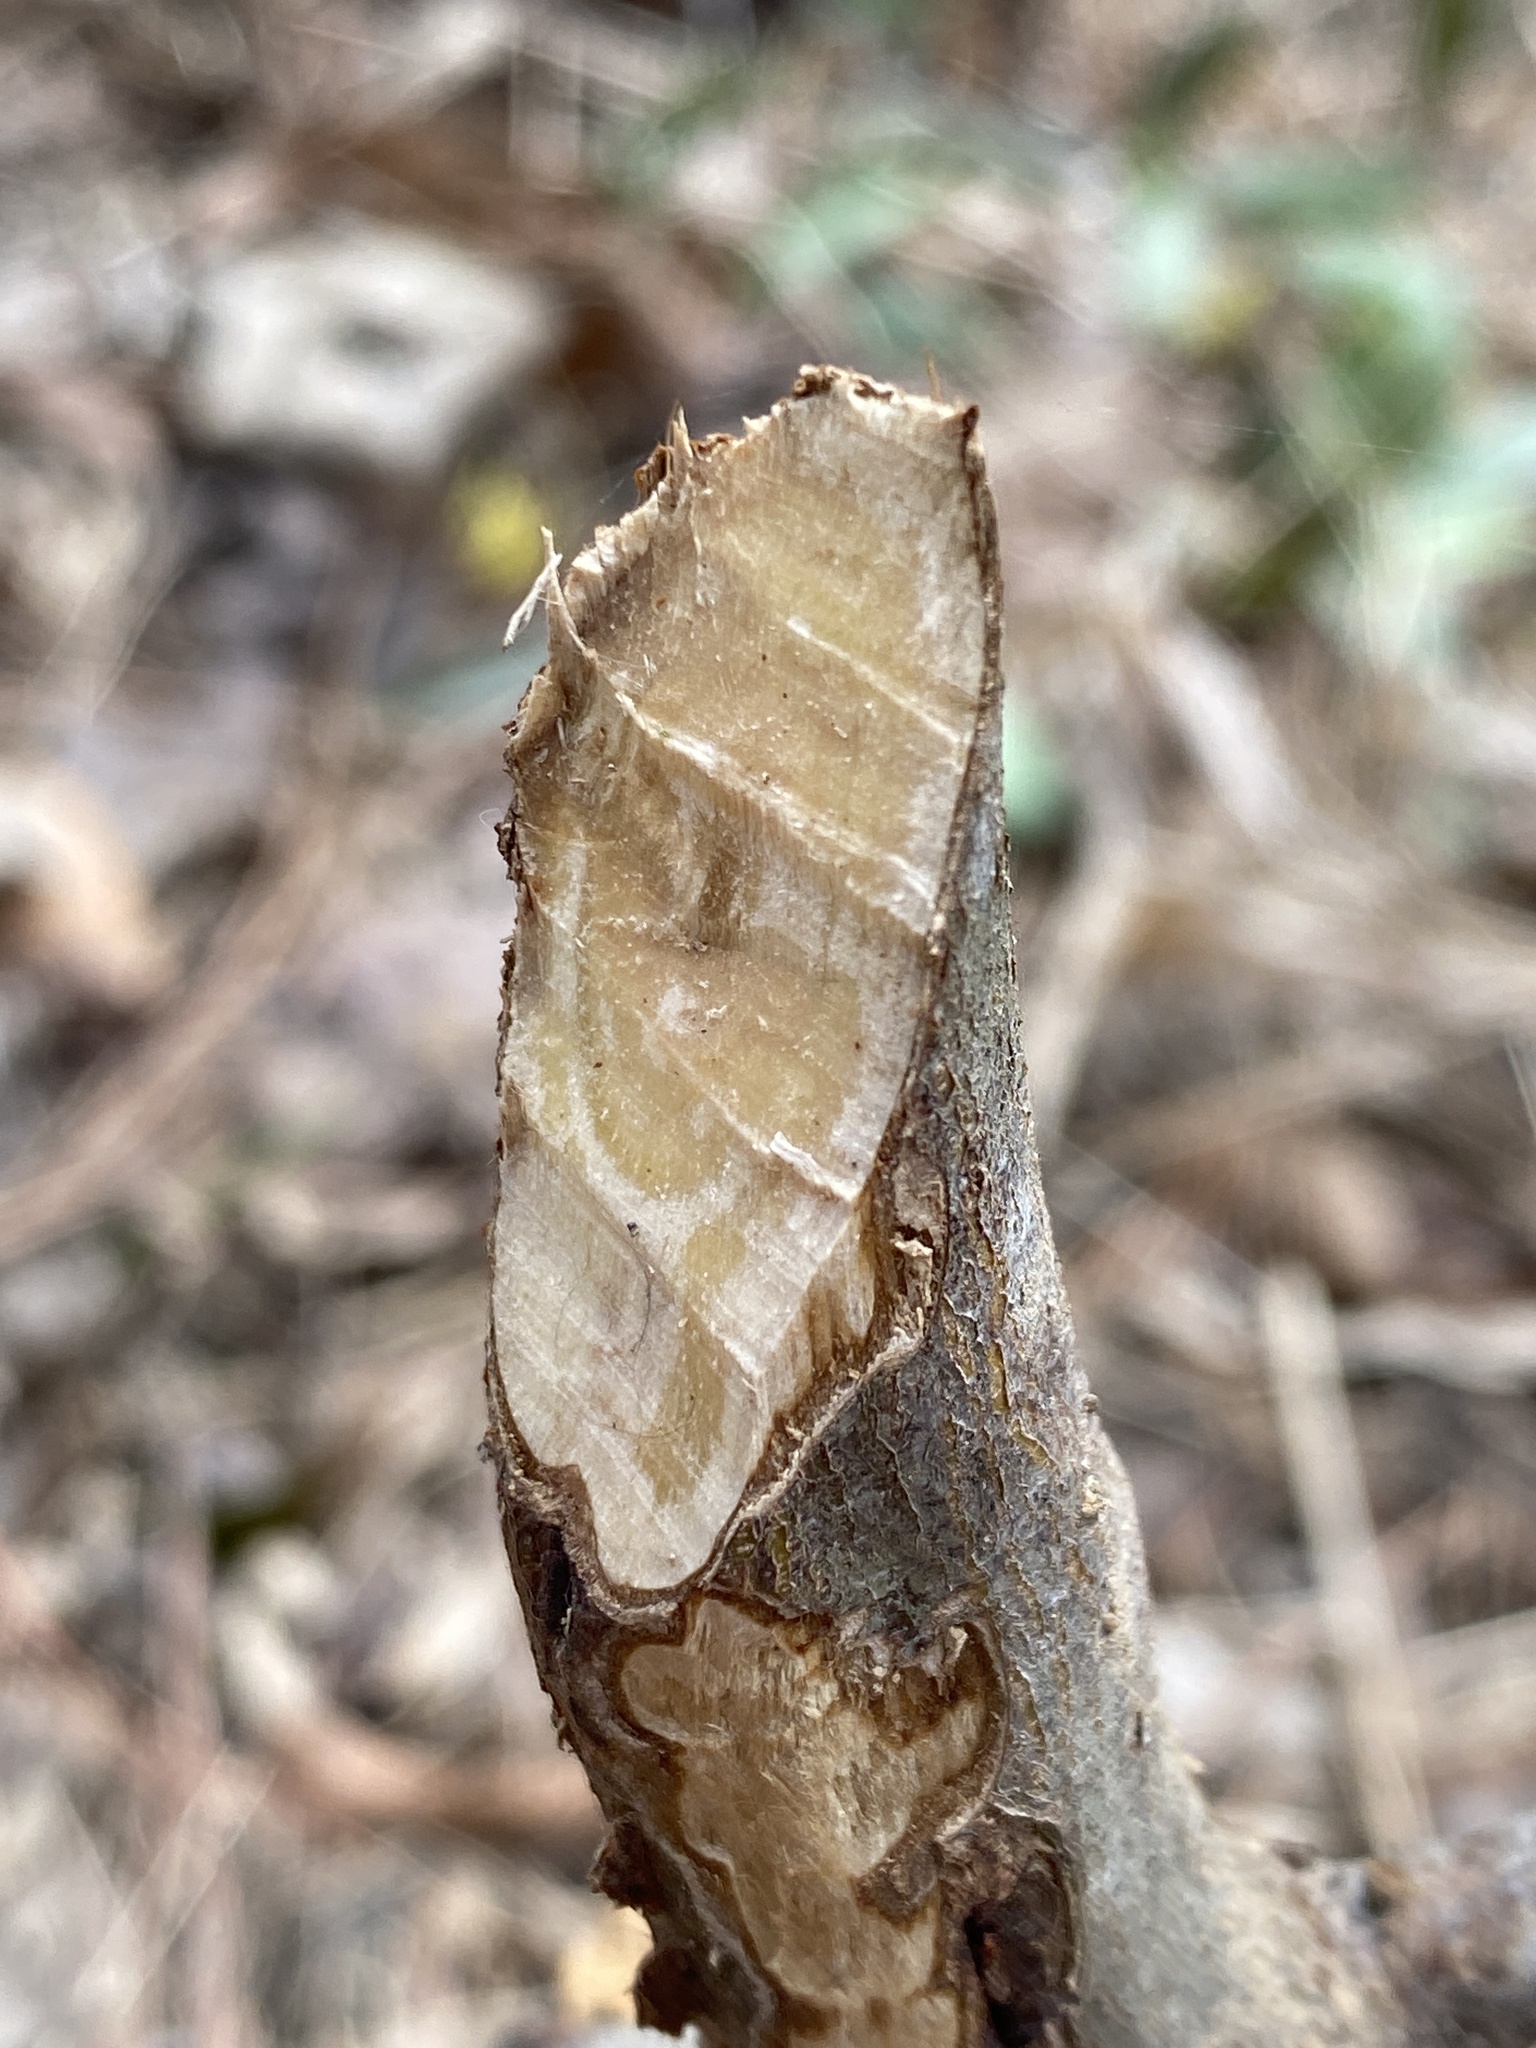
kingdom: Animalia
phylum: Chordata
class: Mammalia
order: Rodentia
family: Castoridae
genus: Castor
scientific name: Castor canadensis
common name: American beaver
